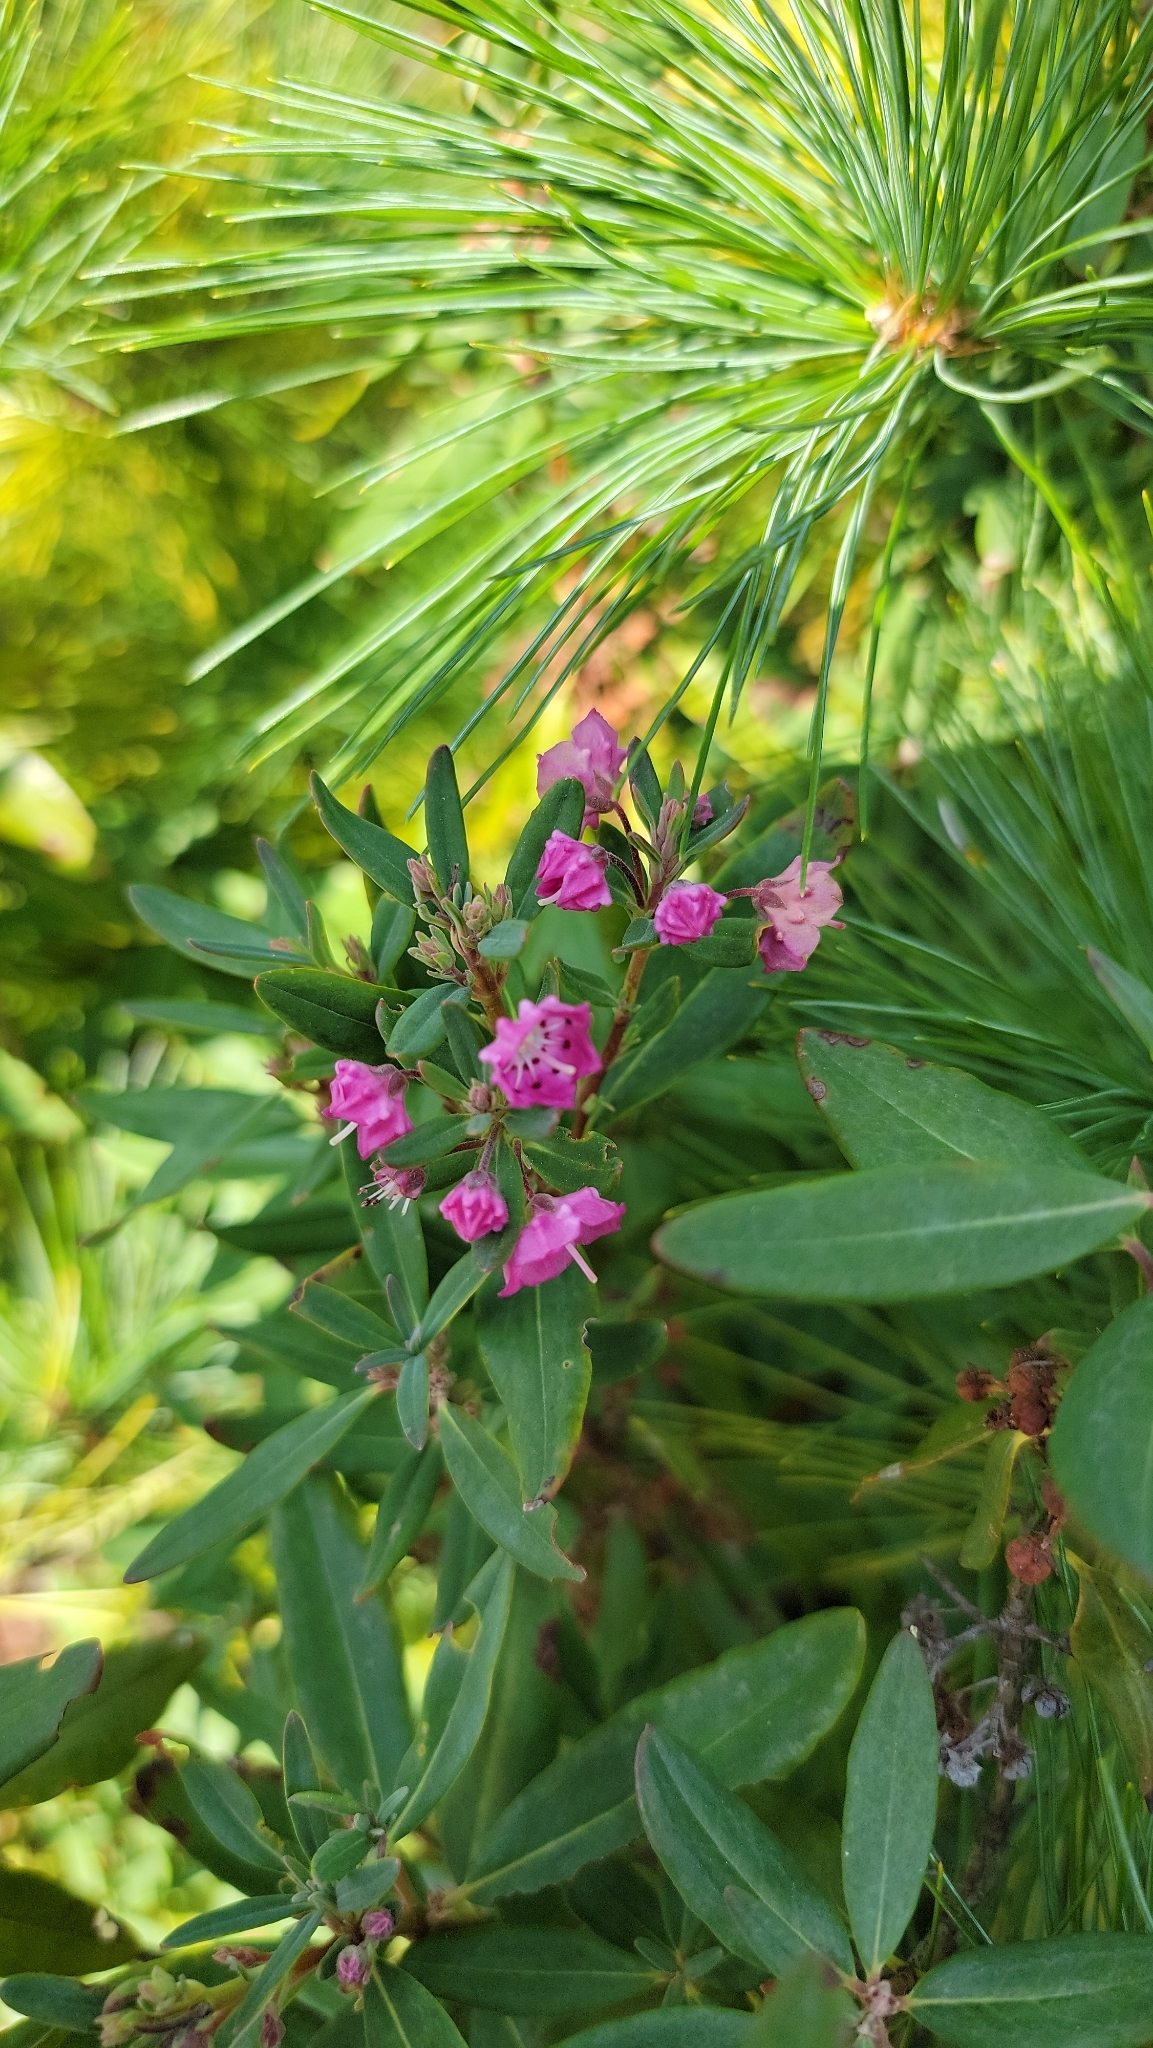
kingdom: Plantae
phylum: Tracheophyta
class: Magnoliopsida
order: Ericales
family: Ericaceae
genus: Kalmia
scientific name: Kalmia angustifolia
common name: Sheep-laurel
